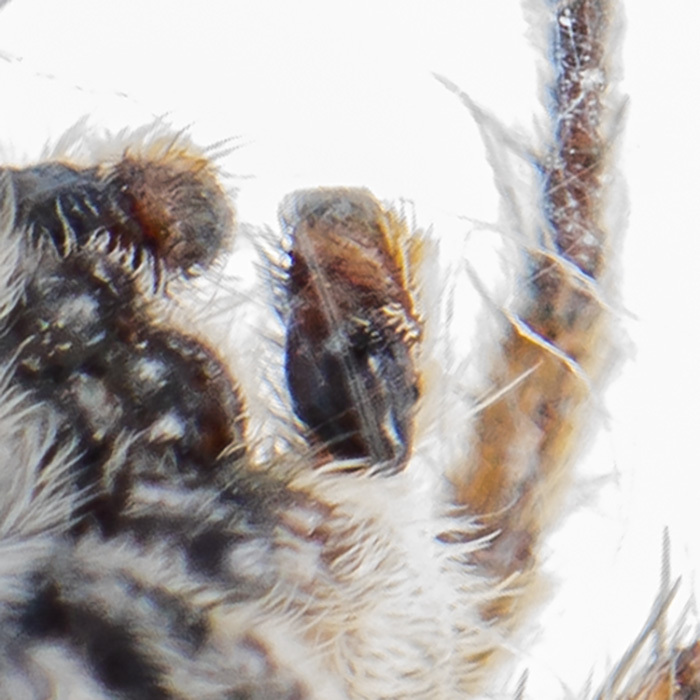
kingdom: Animalia
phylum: Arthropoda
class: Arachnida
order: Araneae
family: Salticidae
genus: Aelurillus
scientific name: Aelurillus nenilini
